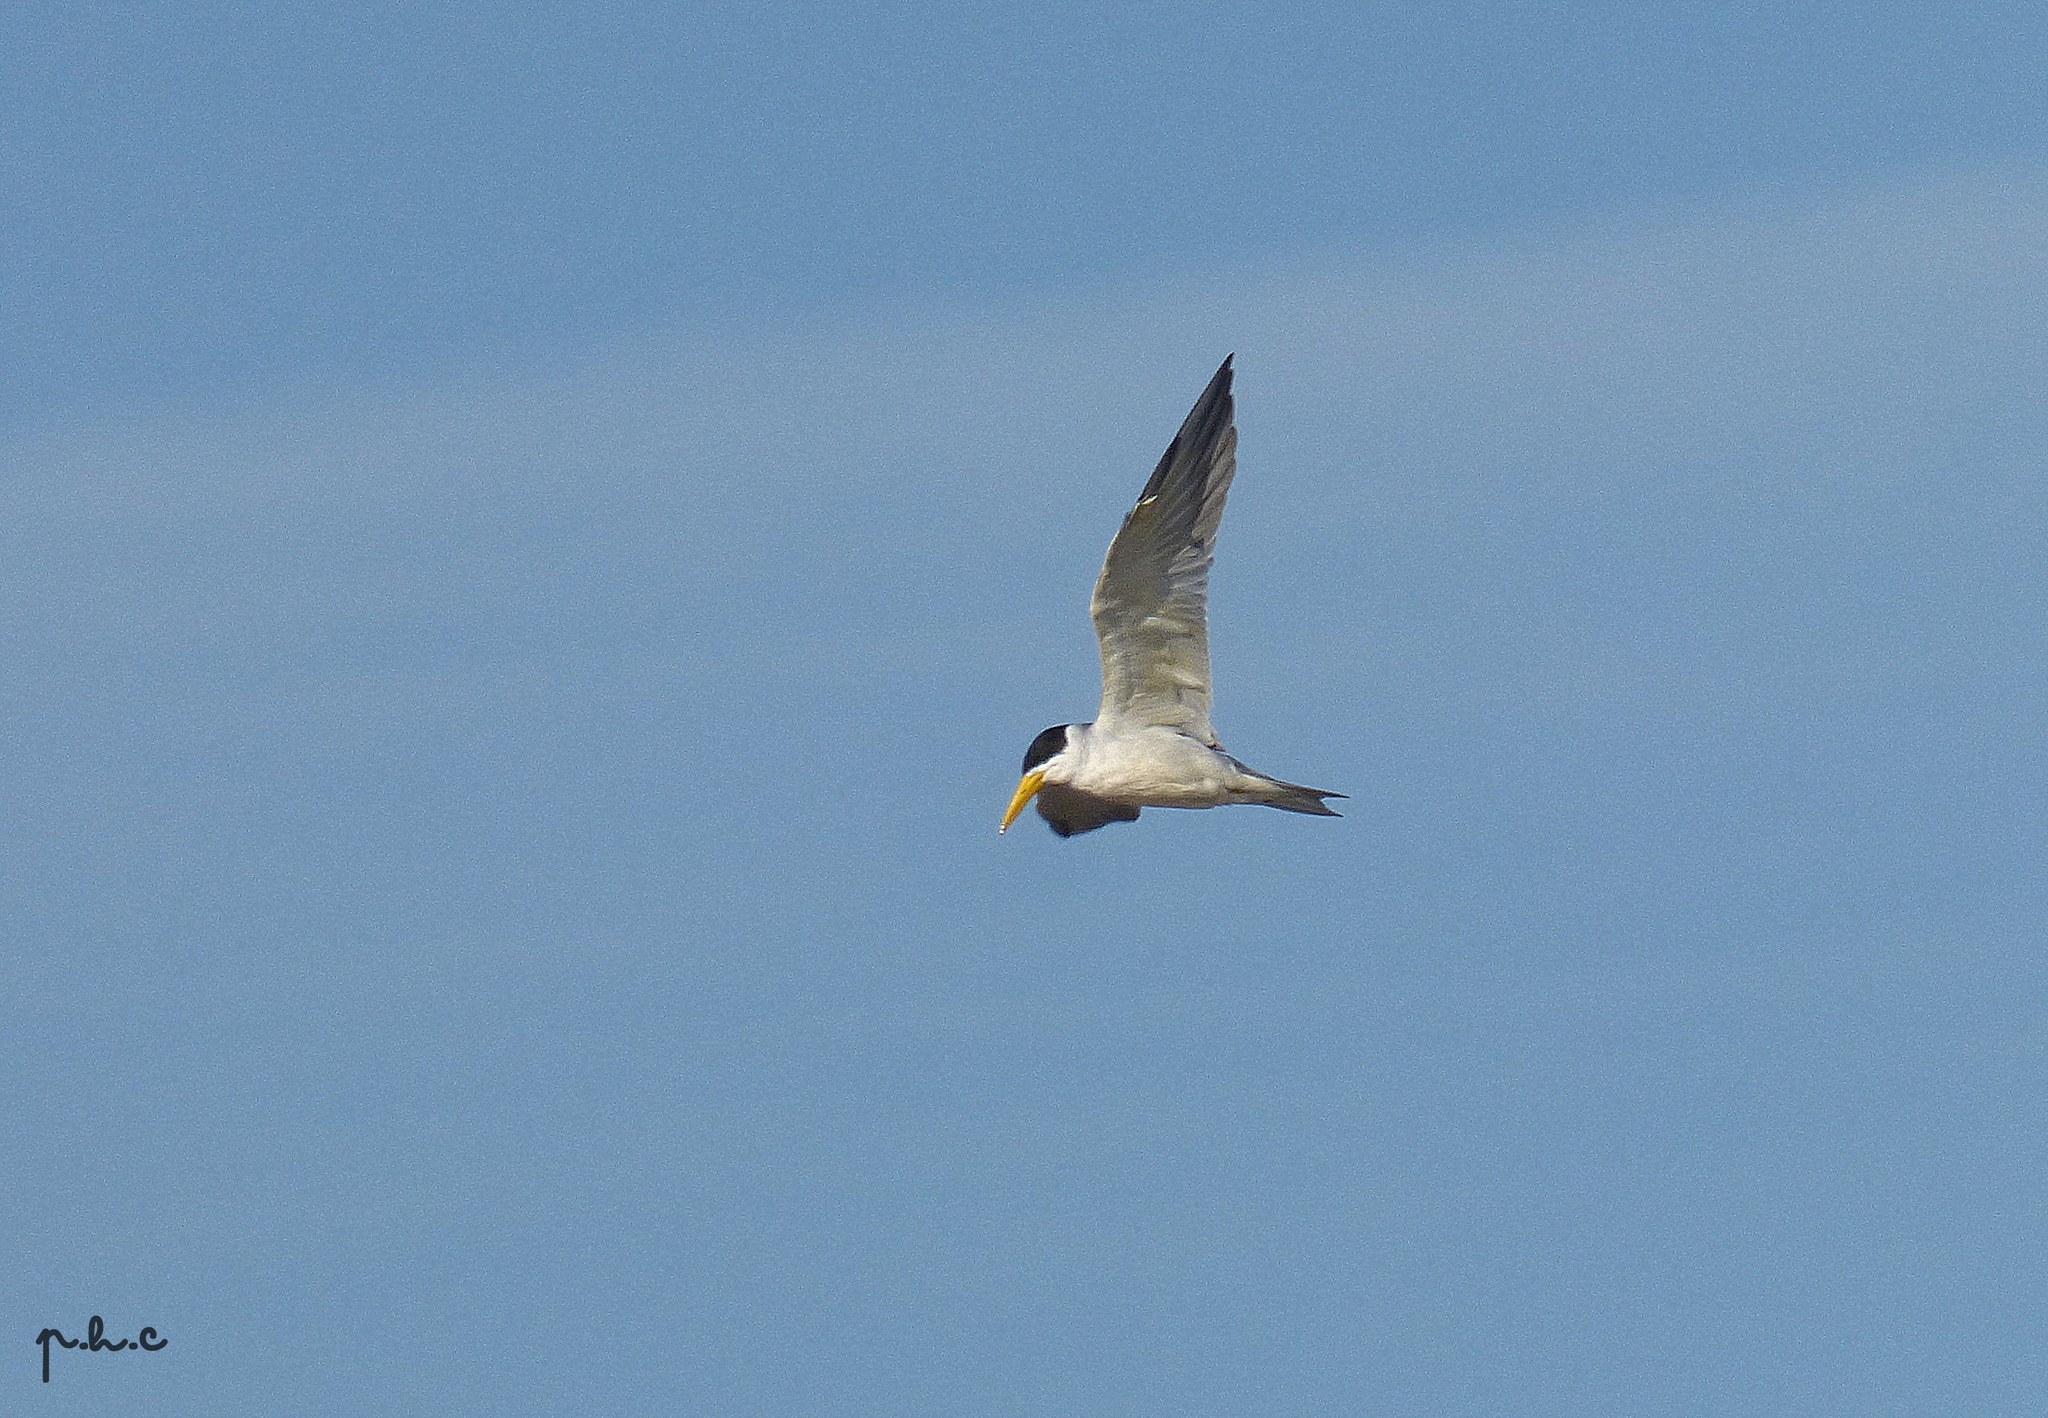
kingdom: Animalia
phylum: Chordata
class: Aves
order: Charadriiformes
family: Laridae
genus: Phaetusa
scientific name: Phaetusa simplex
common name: Large-billed tern
